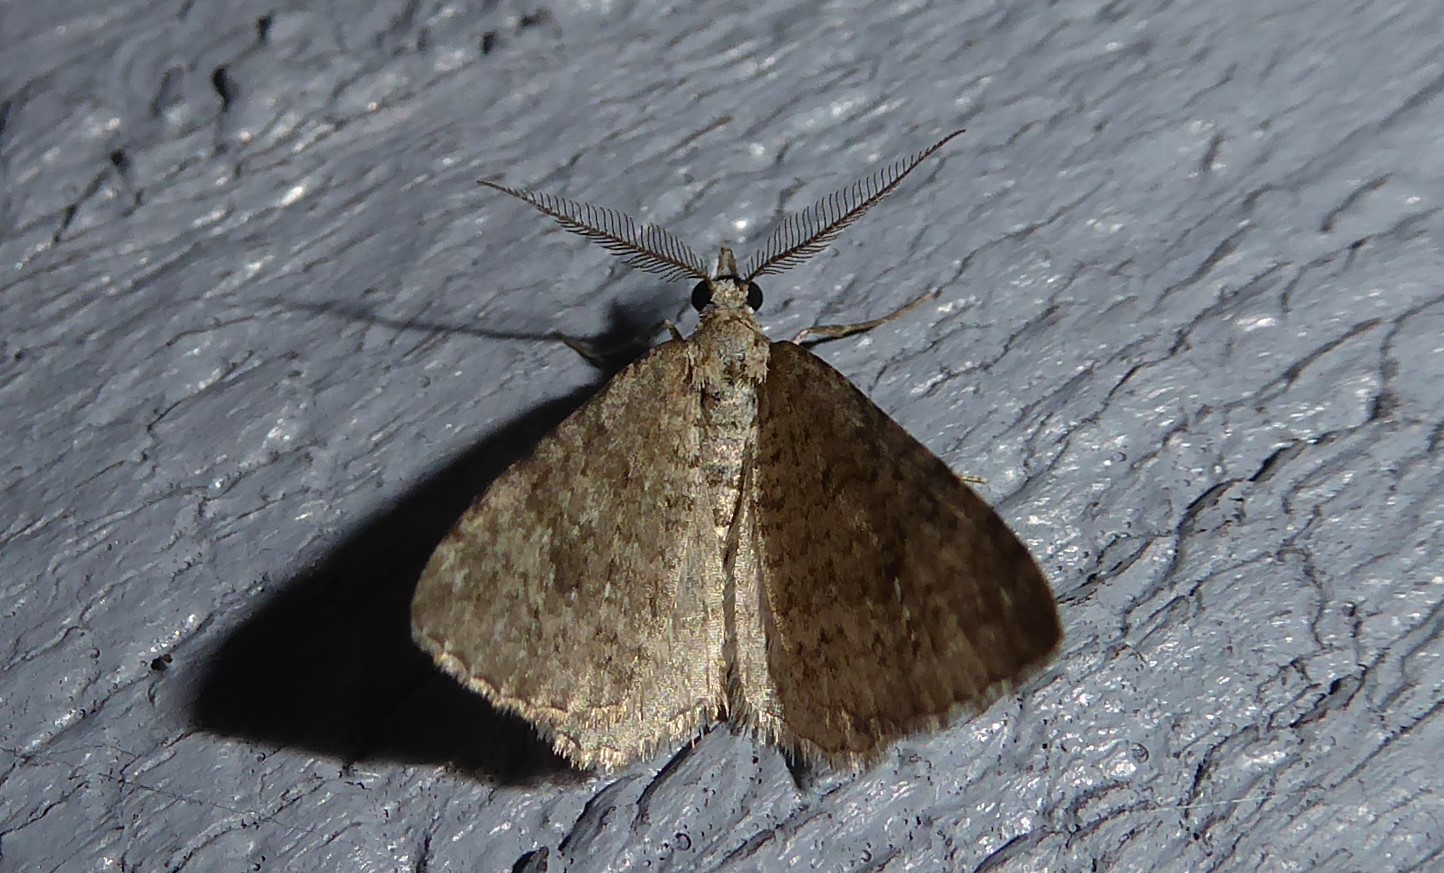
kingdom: Animalia
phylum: Arthropoda
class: Insecta
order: Lepidoptera
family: Geometridae
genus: Helastia
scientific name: Helastia corcularia
